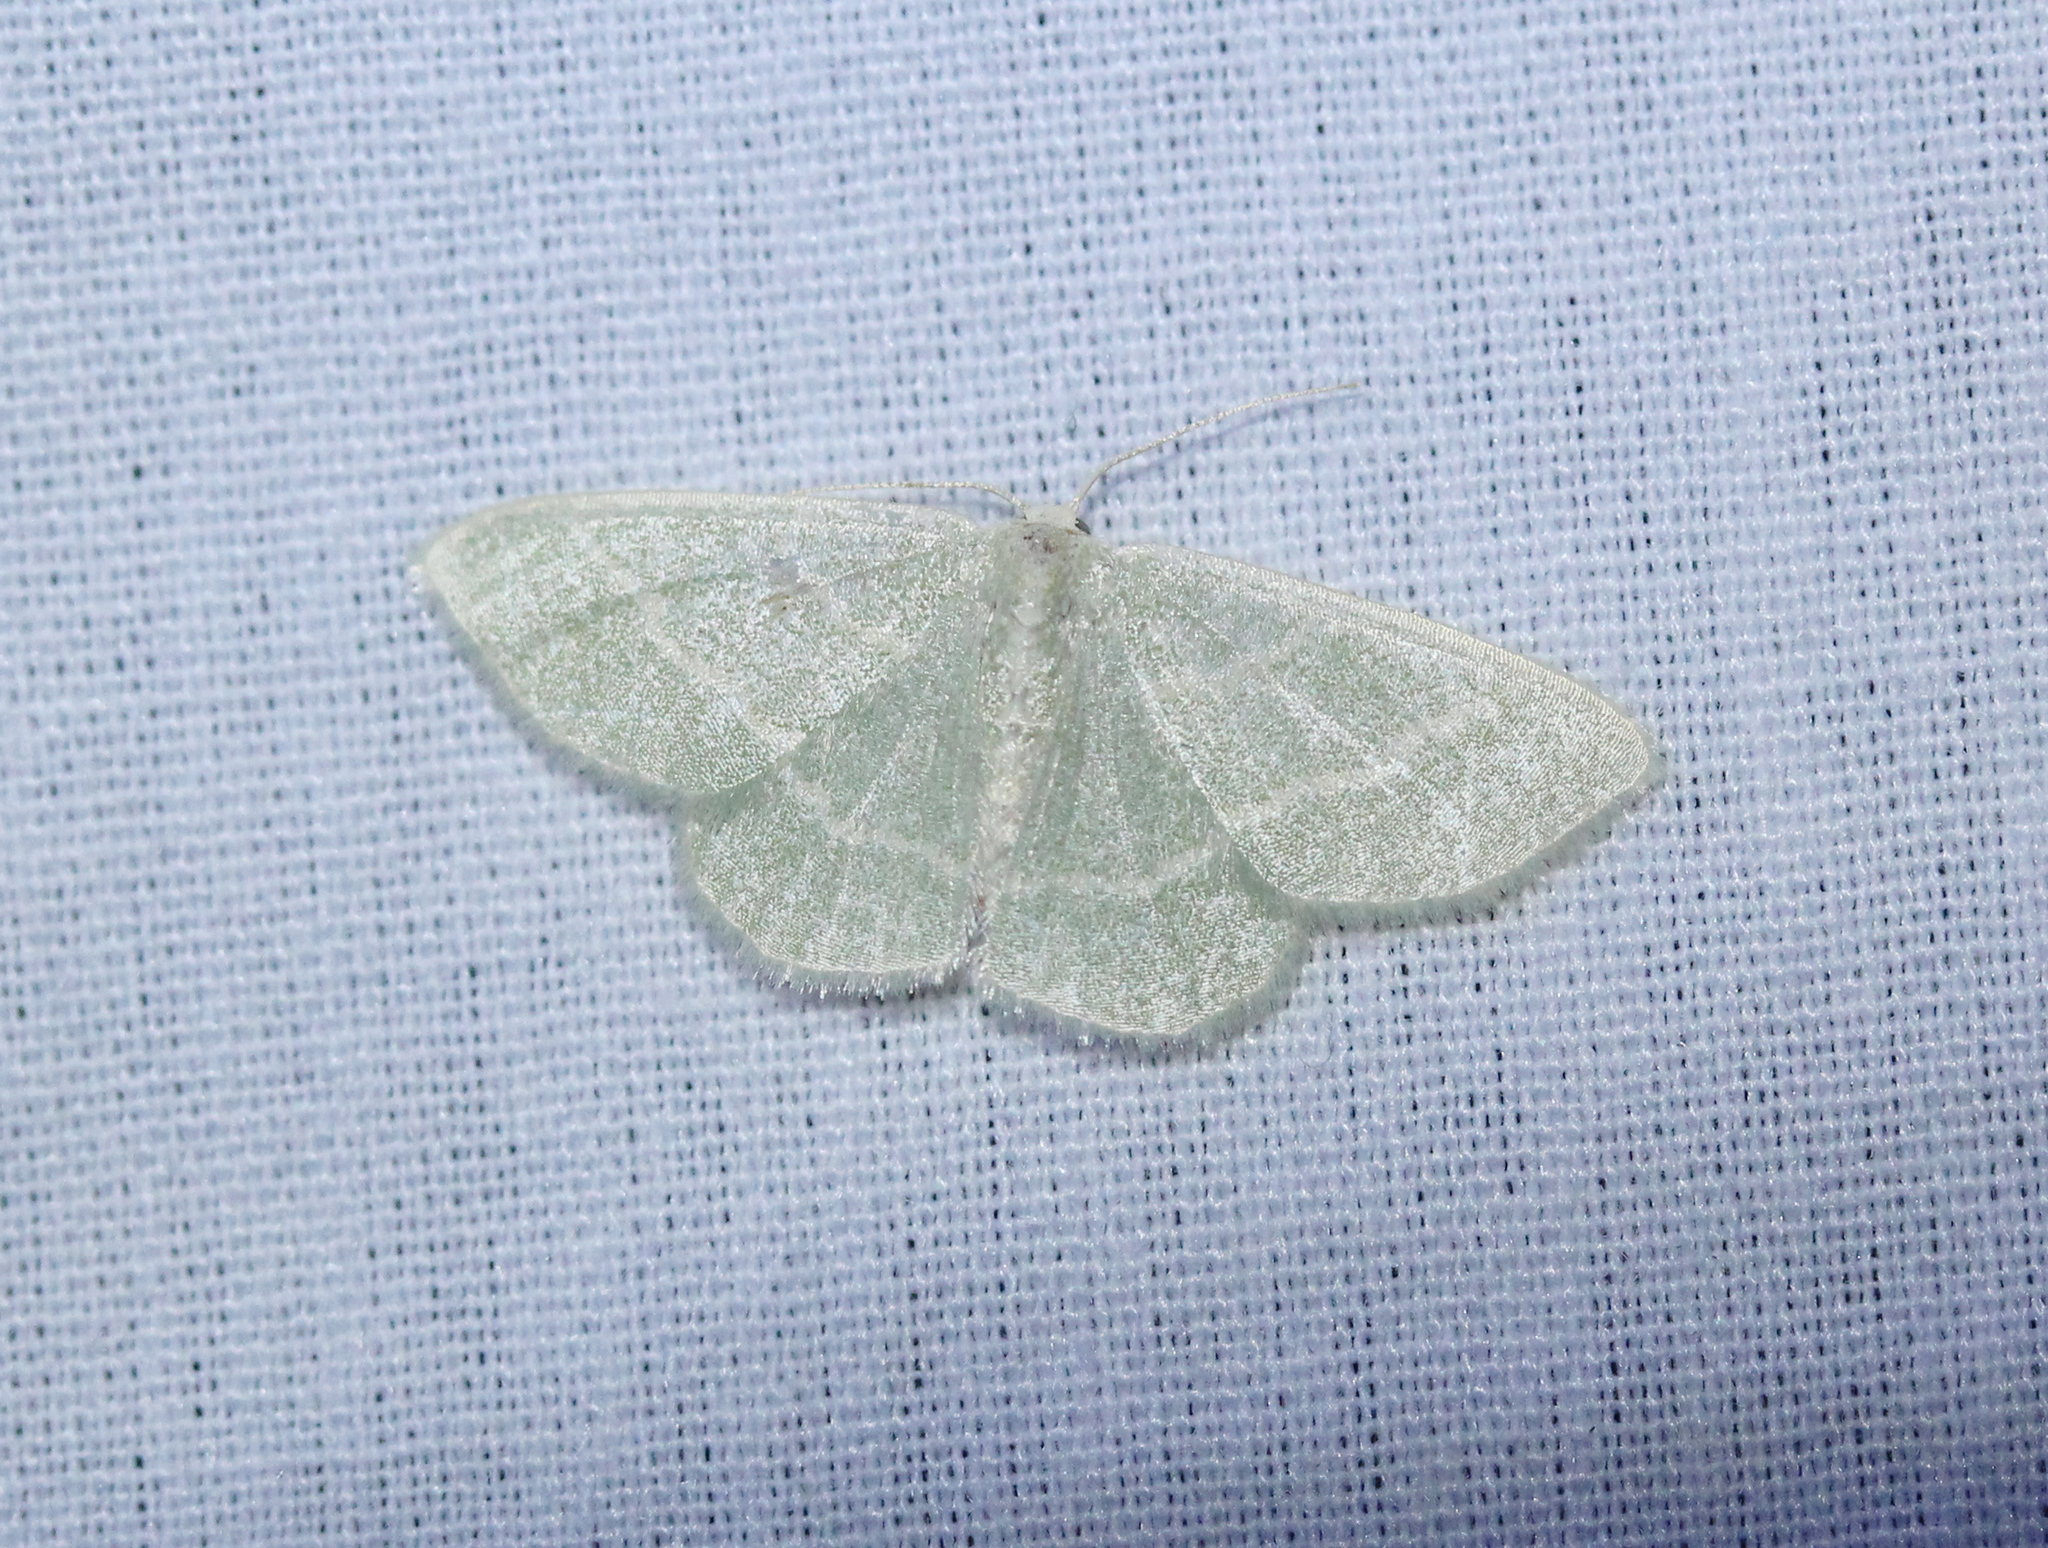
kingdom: Animalia
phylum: Arthropoda
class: Insecta
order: Lepidoptera
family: Geometridae
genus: Chlorochlamys
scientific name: Chlorochlamys chloroleucaria
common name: Blackberry looper
